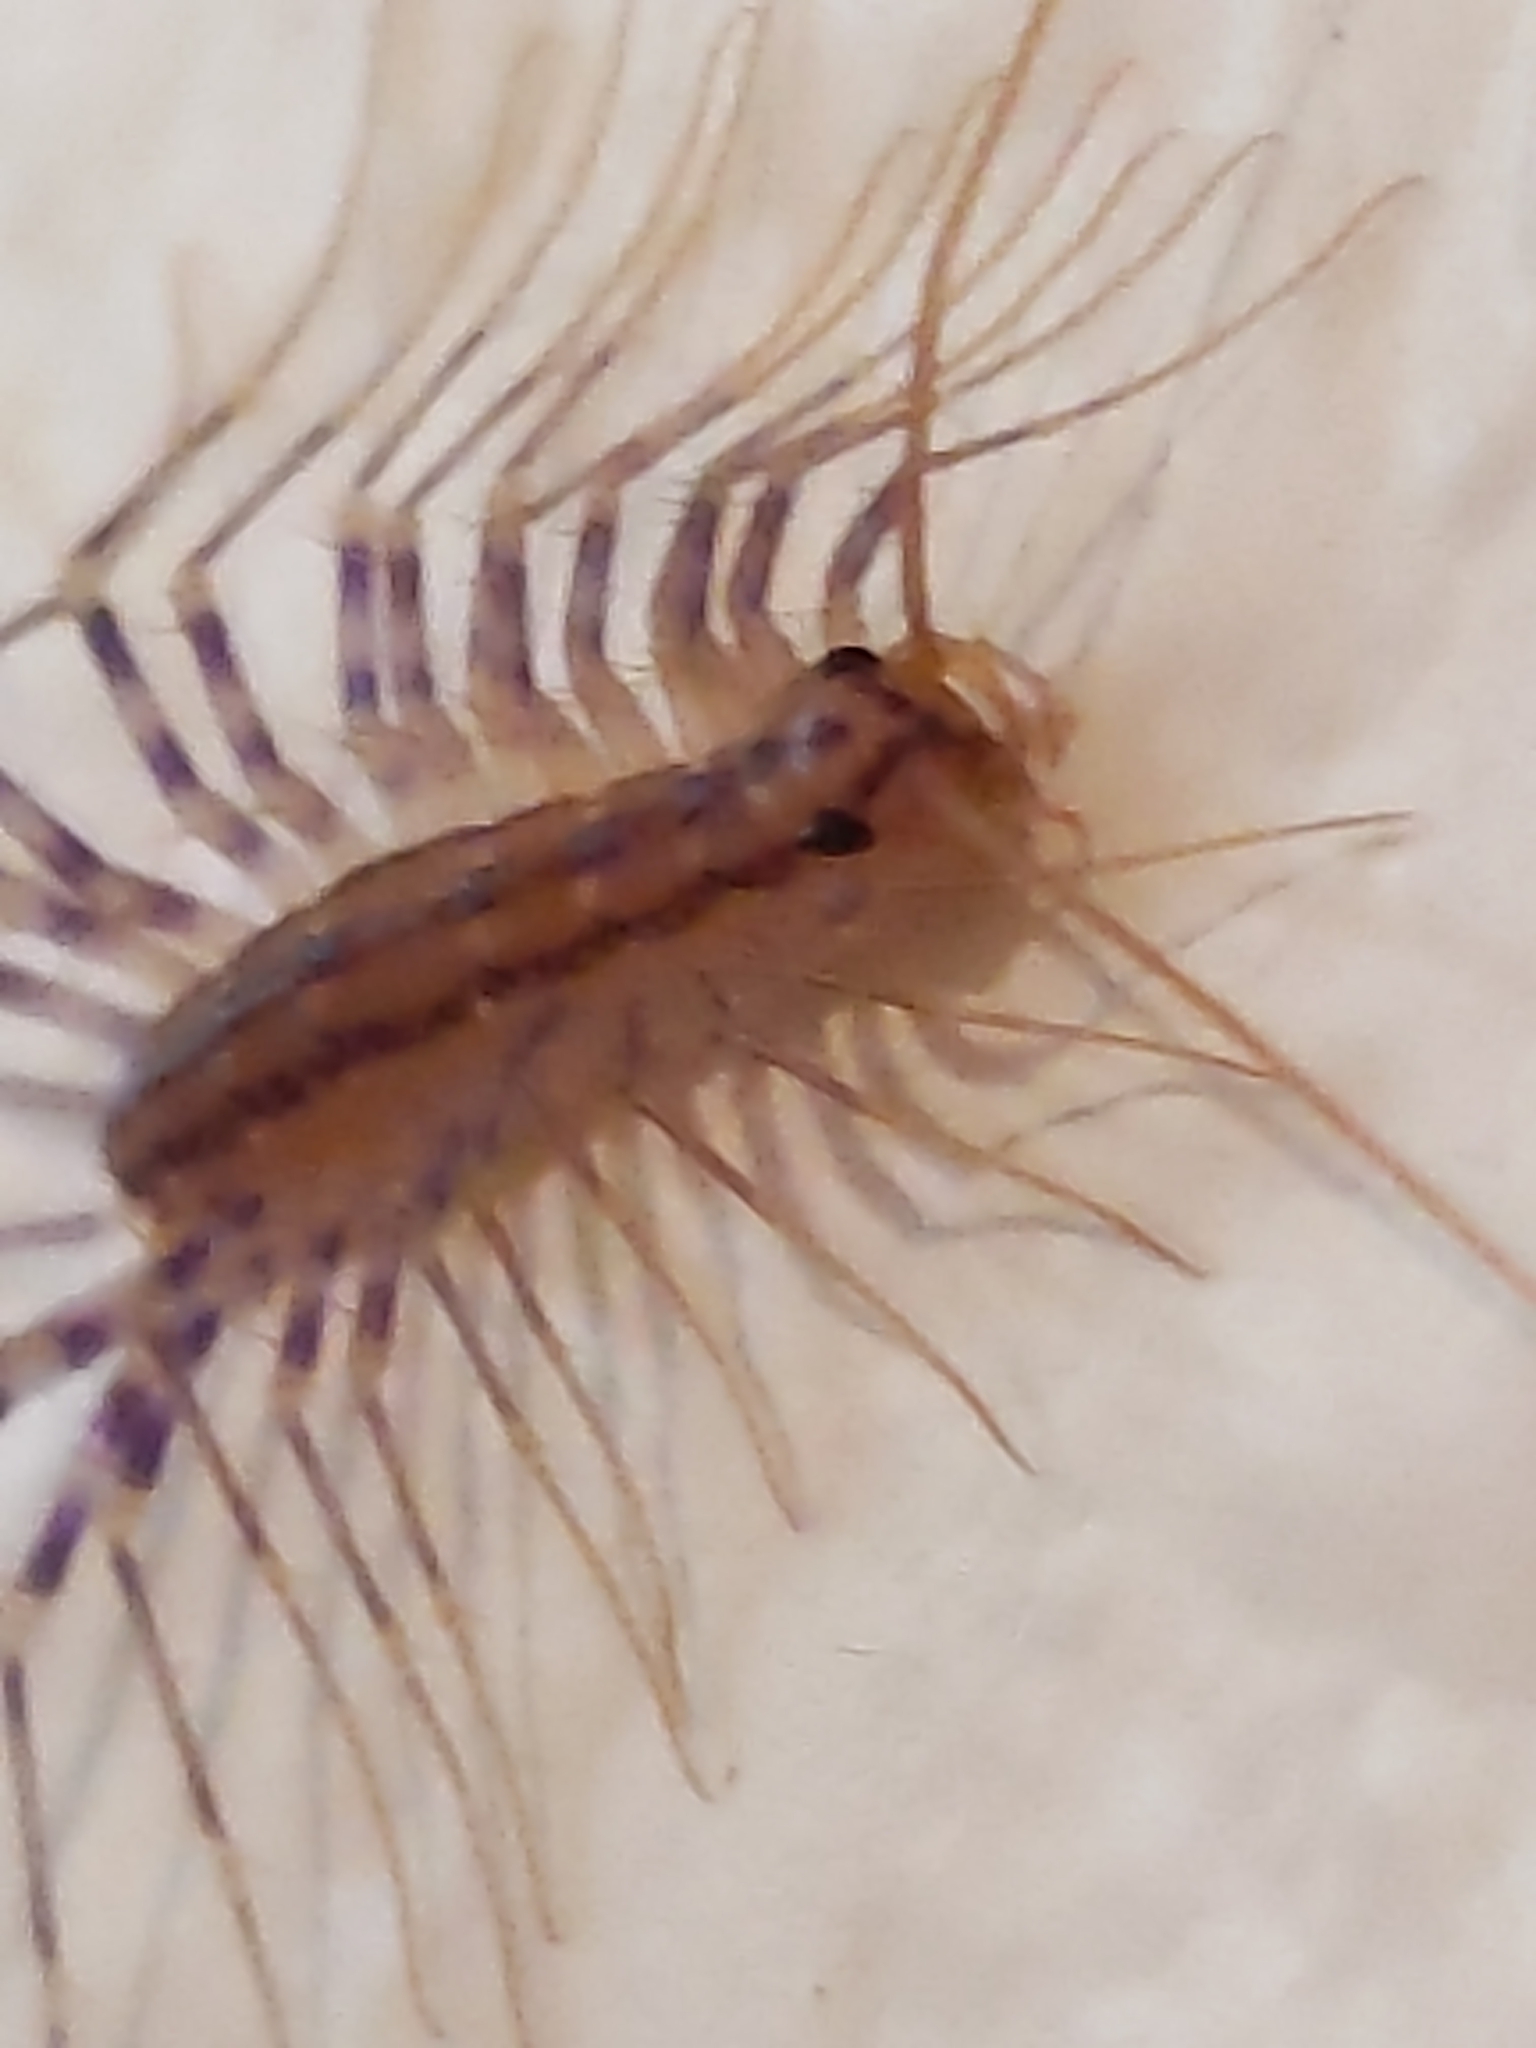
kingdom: Animalia
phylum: Arthropoda
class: Chilopoda
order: Scutigeromorpha
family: Scutigeridae
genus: Scutigera
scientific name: Scutigera coleoptrata
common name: House centipede
